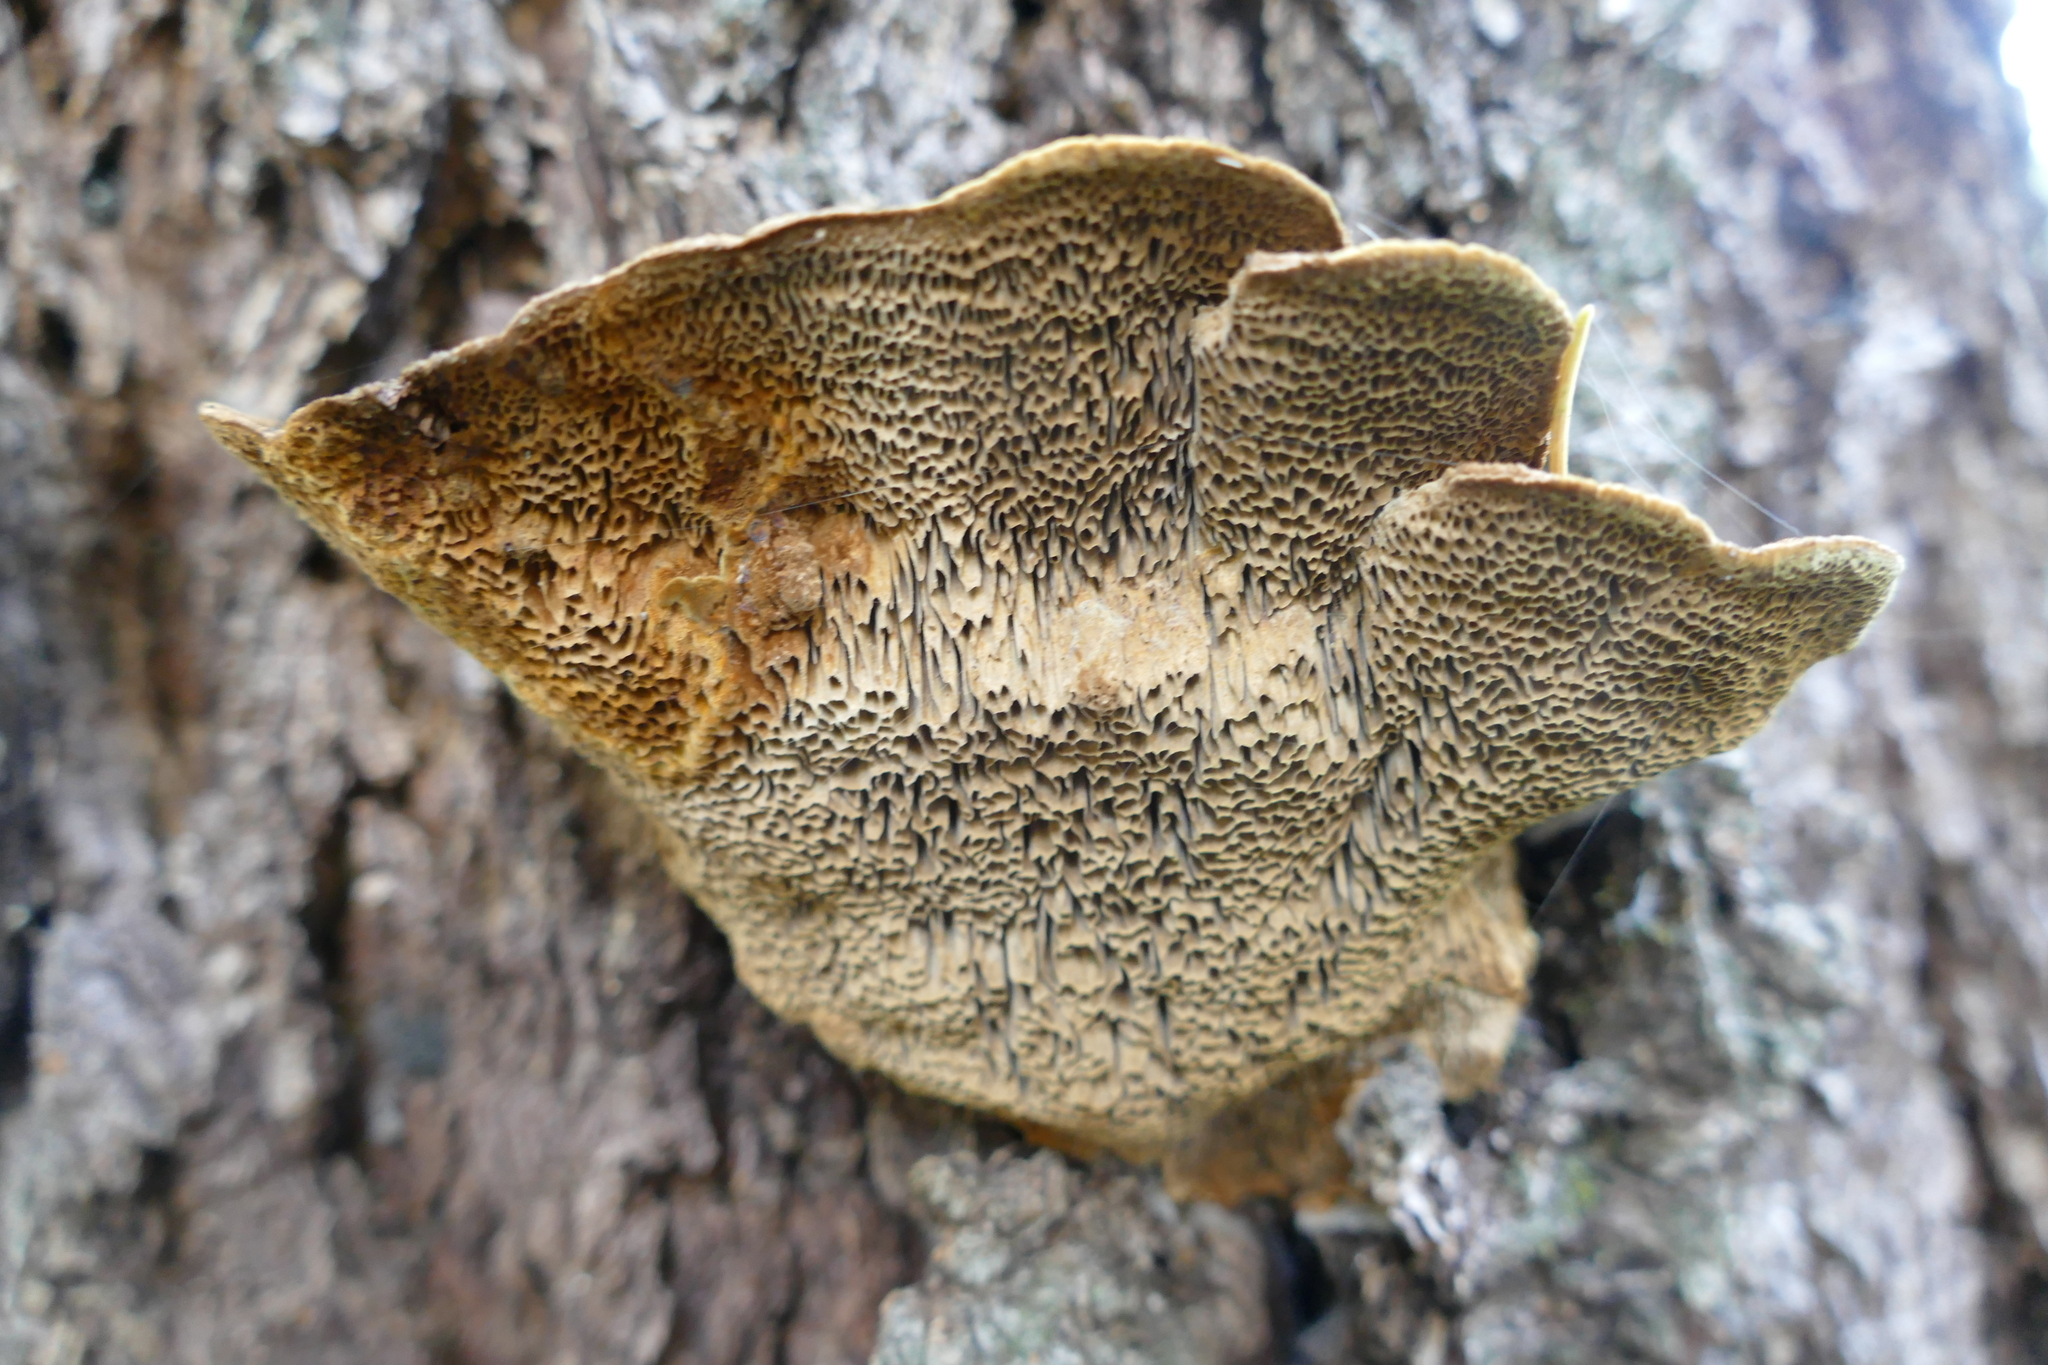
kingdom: Fungi
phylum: Basidiomycota
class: Agaricomycetes
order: Hymenochaetales
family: Hymenochaetaceae
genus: Porodaedalea
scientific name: Porodaedalea pini
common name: Pine bracket
